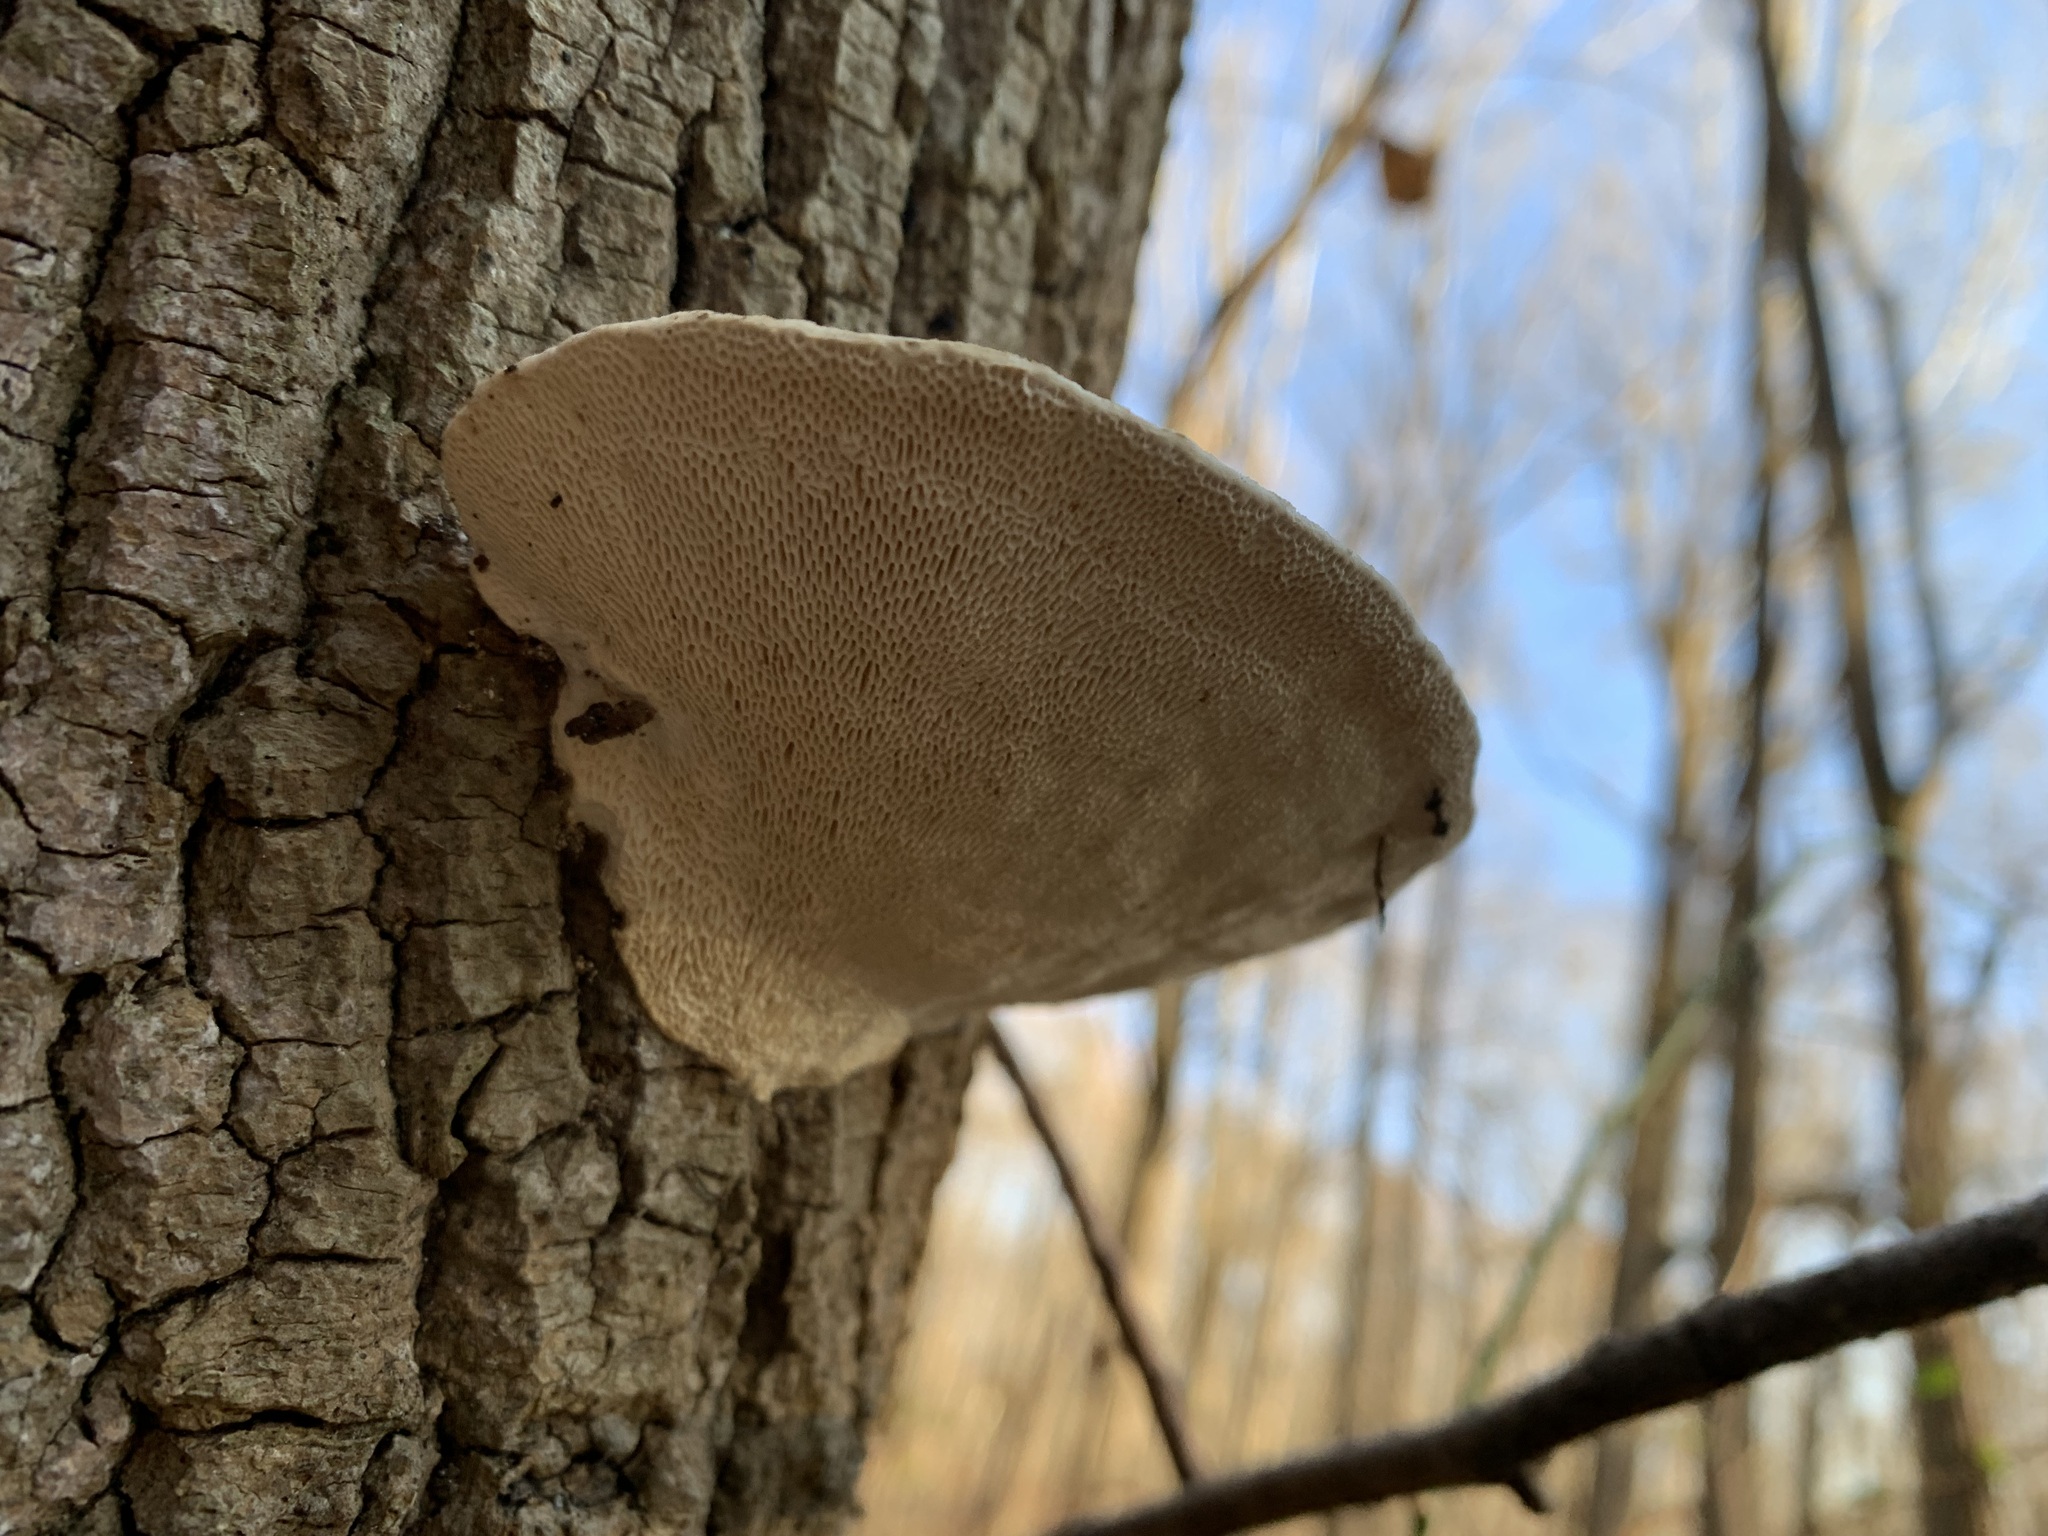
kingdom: Fungi
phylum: Basidiomycota
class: Agaricomycetes
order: Polyporales
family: Polyporaceae
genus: Trametes
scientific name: Trametes gibbosa
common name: Lumpy bracket
